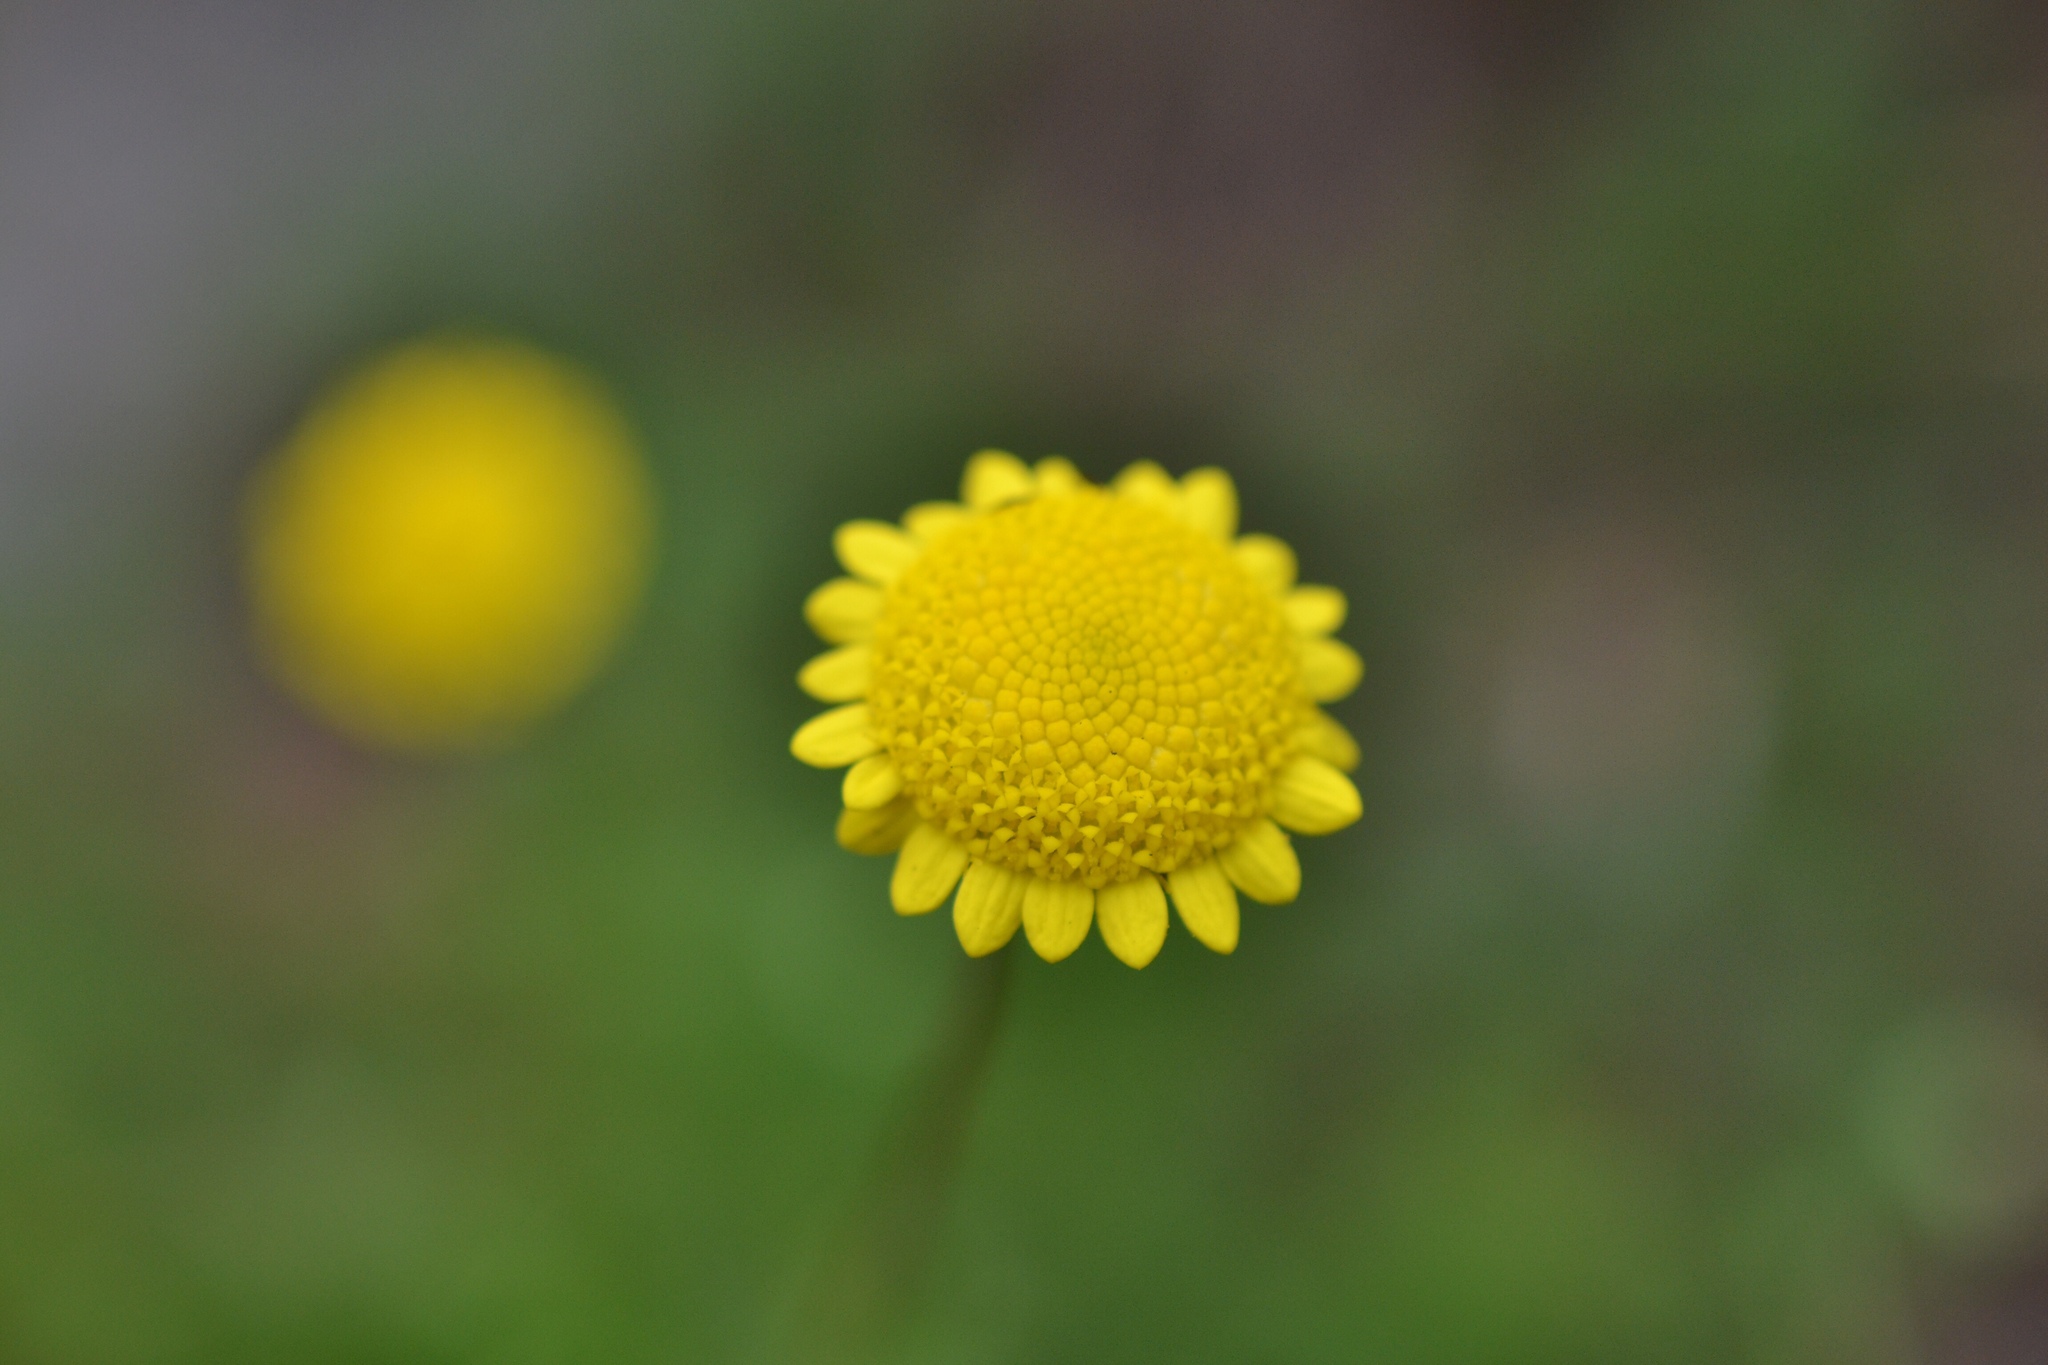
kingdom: Plantae
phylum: Tracheophyta
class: Magnoliopsida
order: Asterales
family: Asteraceae
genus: Cotula
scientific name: Cotula pruinosa
